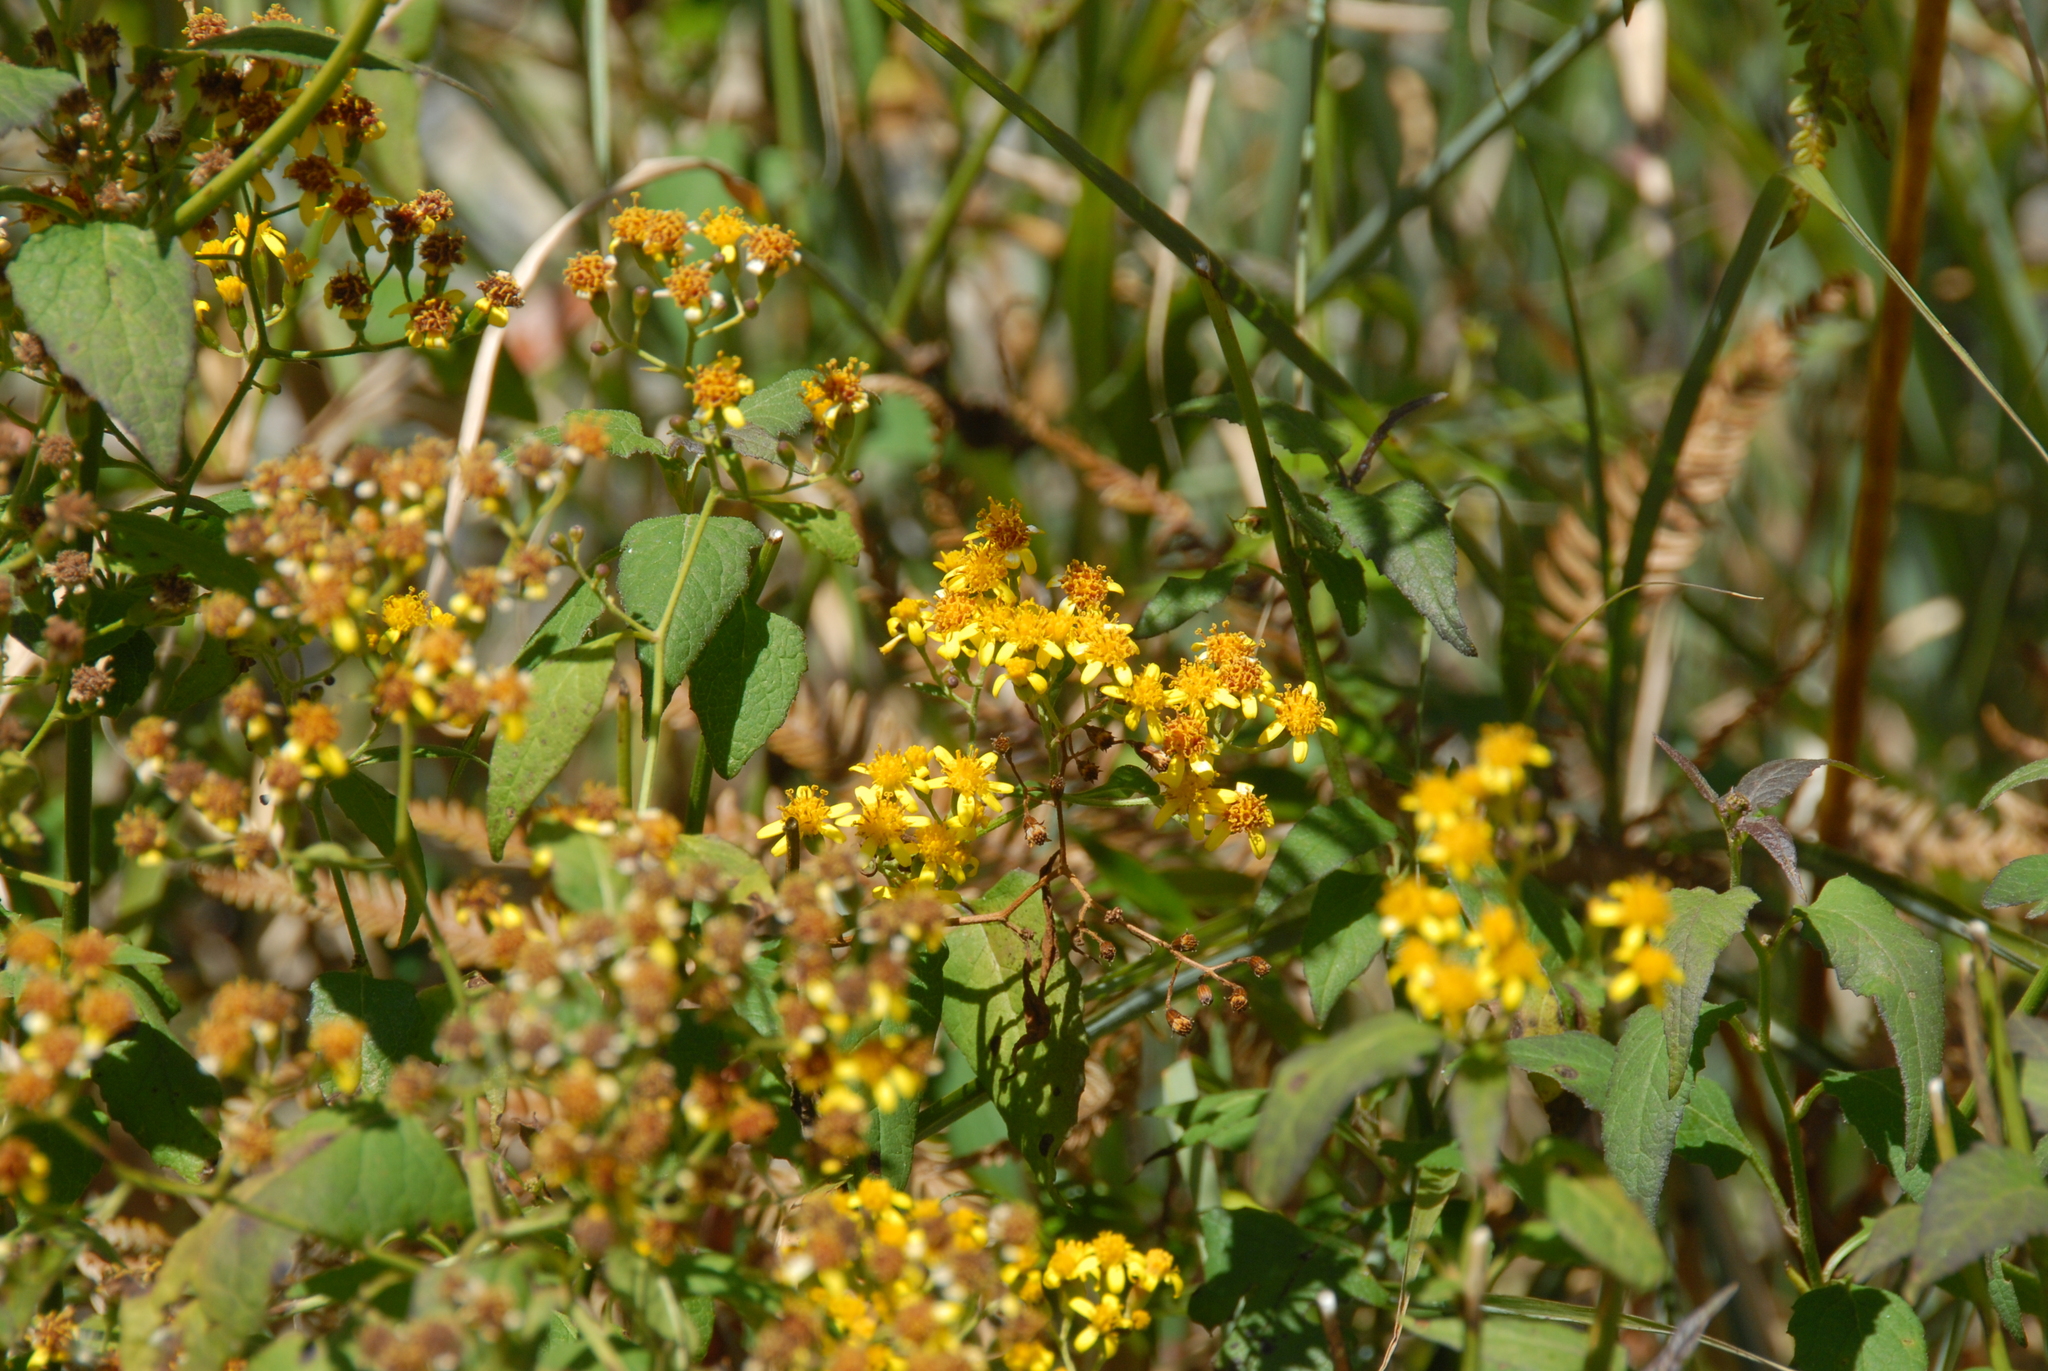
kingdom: Plantae
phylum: Tracheophyta
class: Magnoliopsida
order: Asterales
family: Asteraceae
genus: Senecio
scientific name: Senecio scandens
